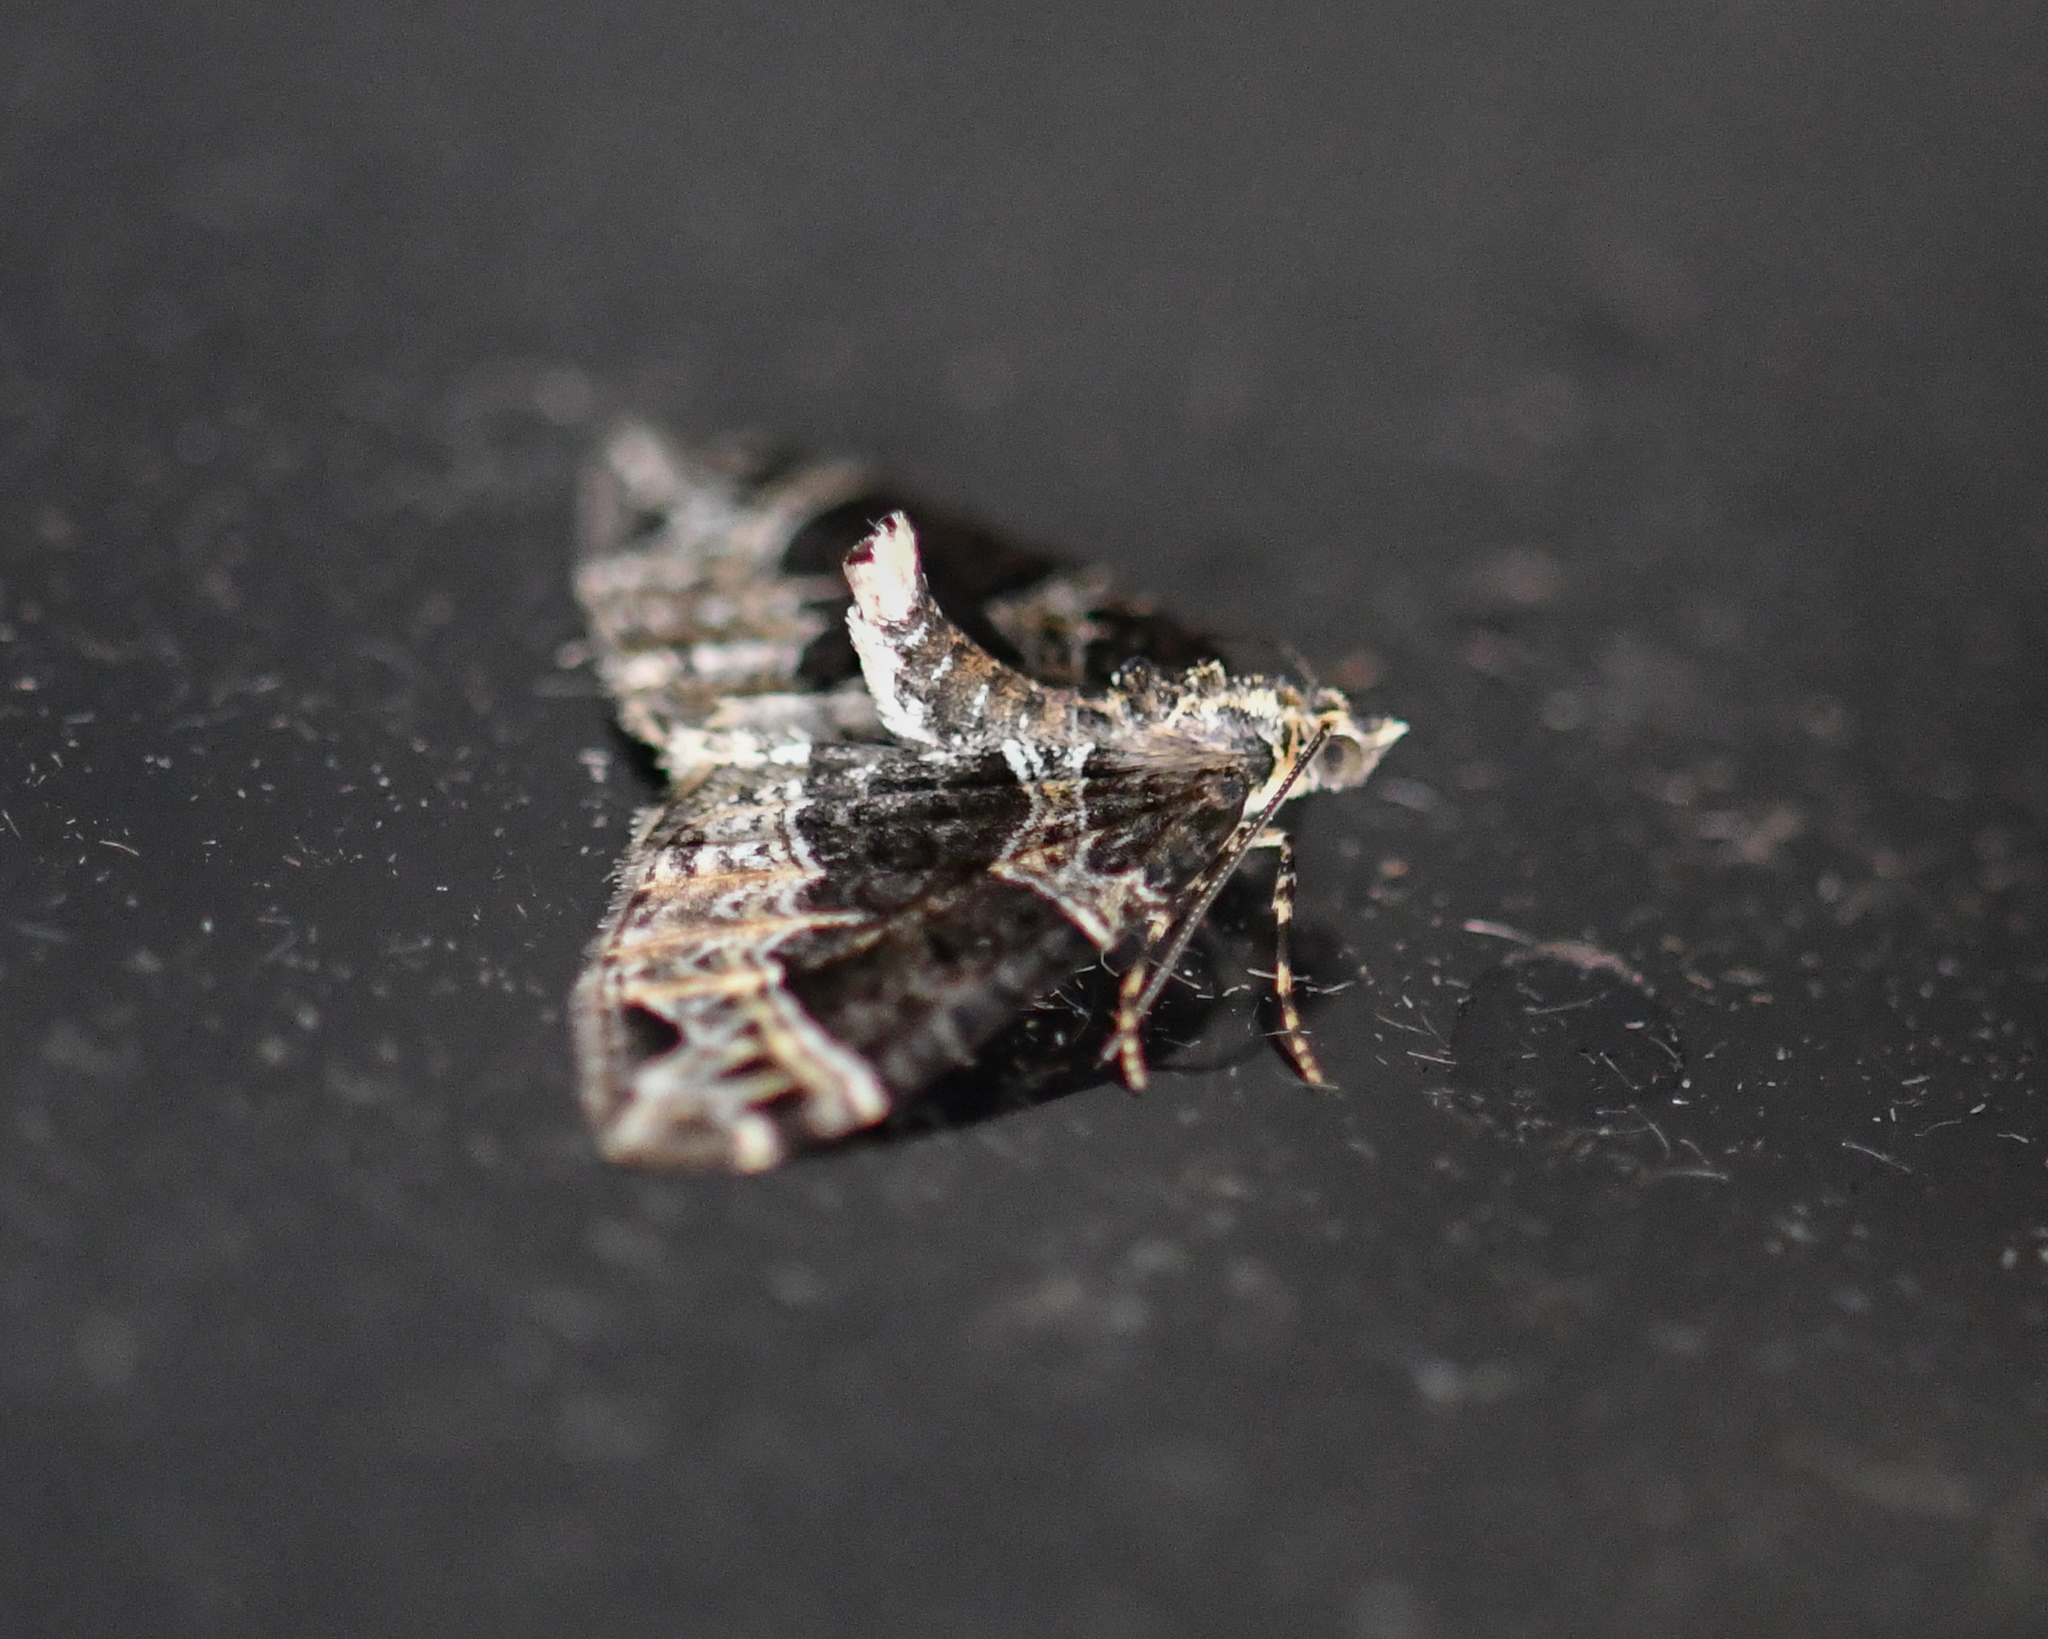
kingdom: Animalia
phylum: Arthropoda
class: Insecta
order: Lepidoptera
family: Geometridae
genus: Ecliptopera
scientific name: Ecliptopera silaceata
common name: Small phoenix
